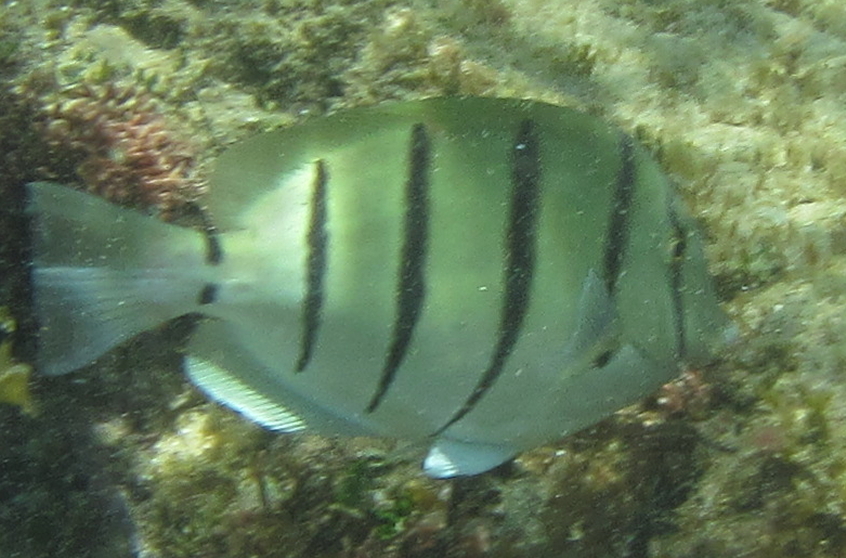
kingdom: Animalia
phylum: Chordata
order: Perciformes
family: Acanthuridae
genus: Acanthurus
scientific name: Acanthurus triostegus
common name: Convict surgeonfish
